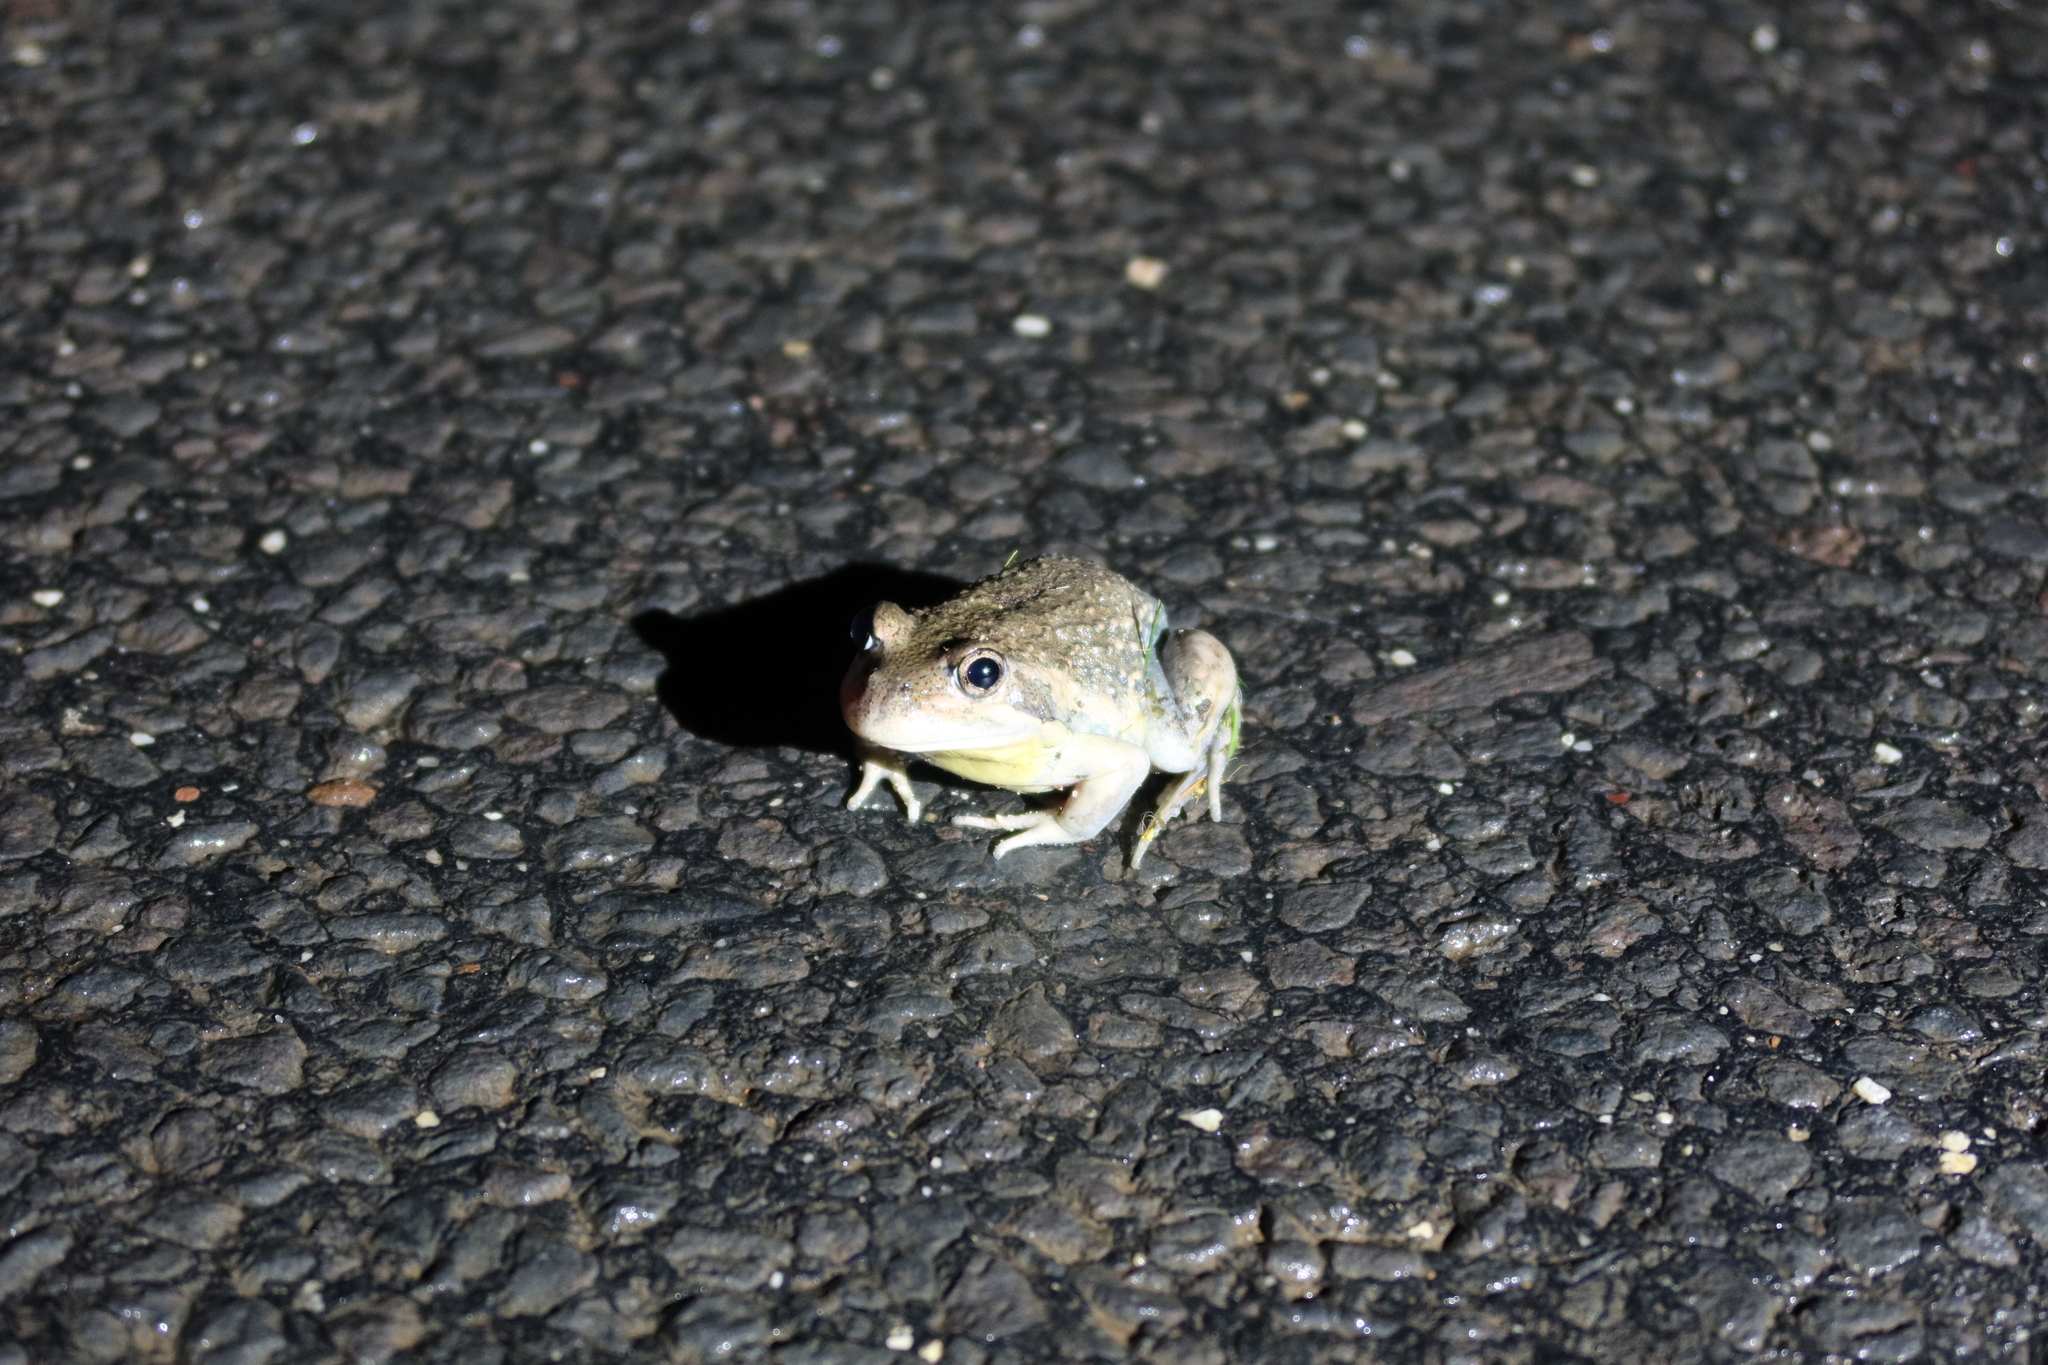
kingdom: Animalia
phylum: Chordata
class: Amphibia
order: Anura
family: Limnodynastidae
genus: Limnodynastes
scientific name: Limnodynastes dumerilii
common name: Banjo frog
